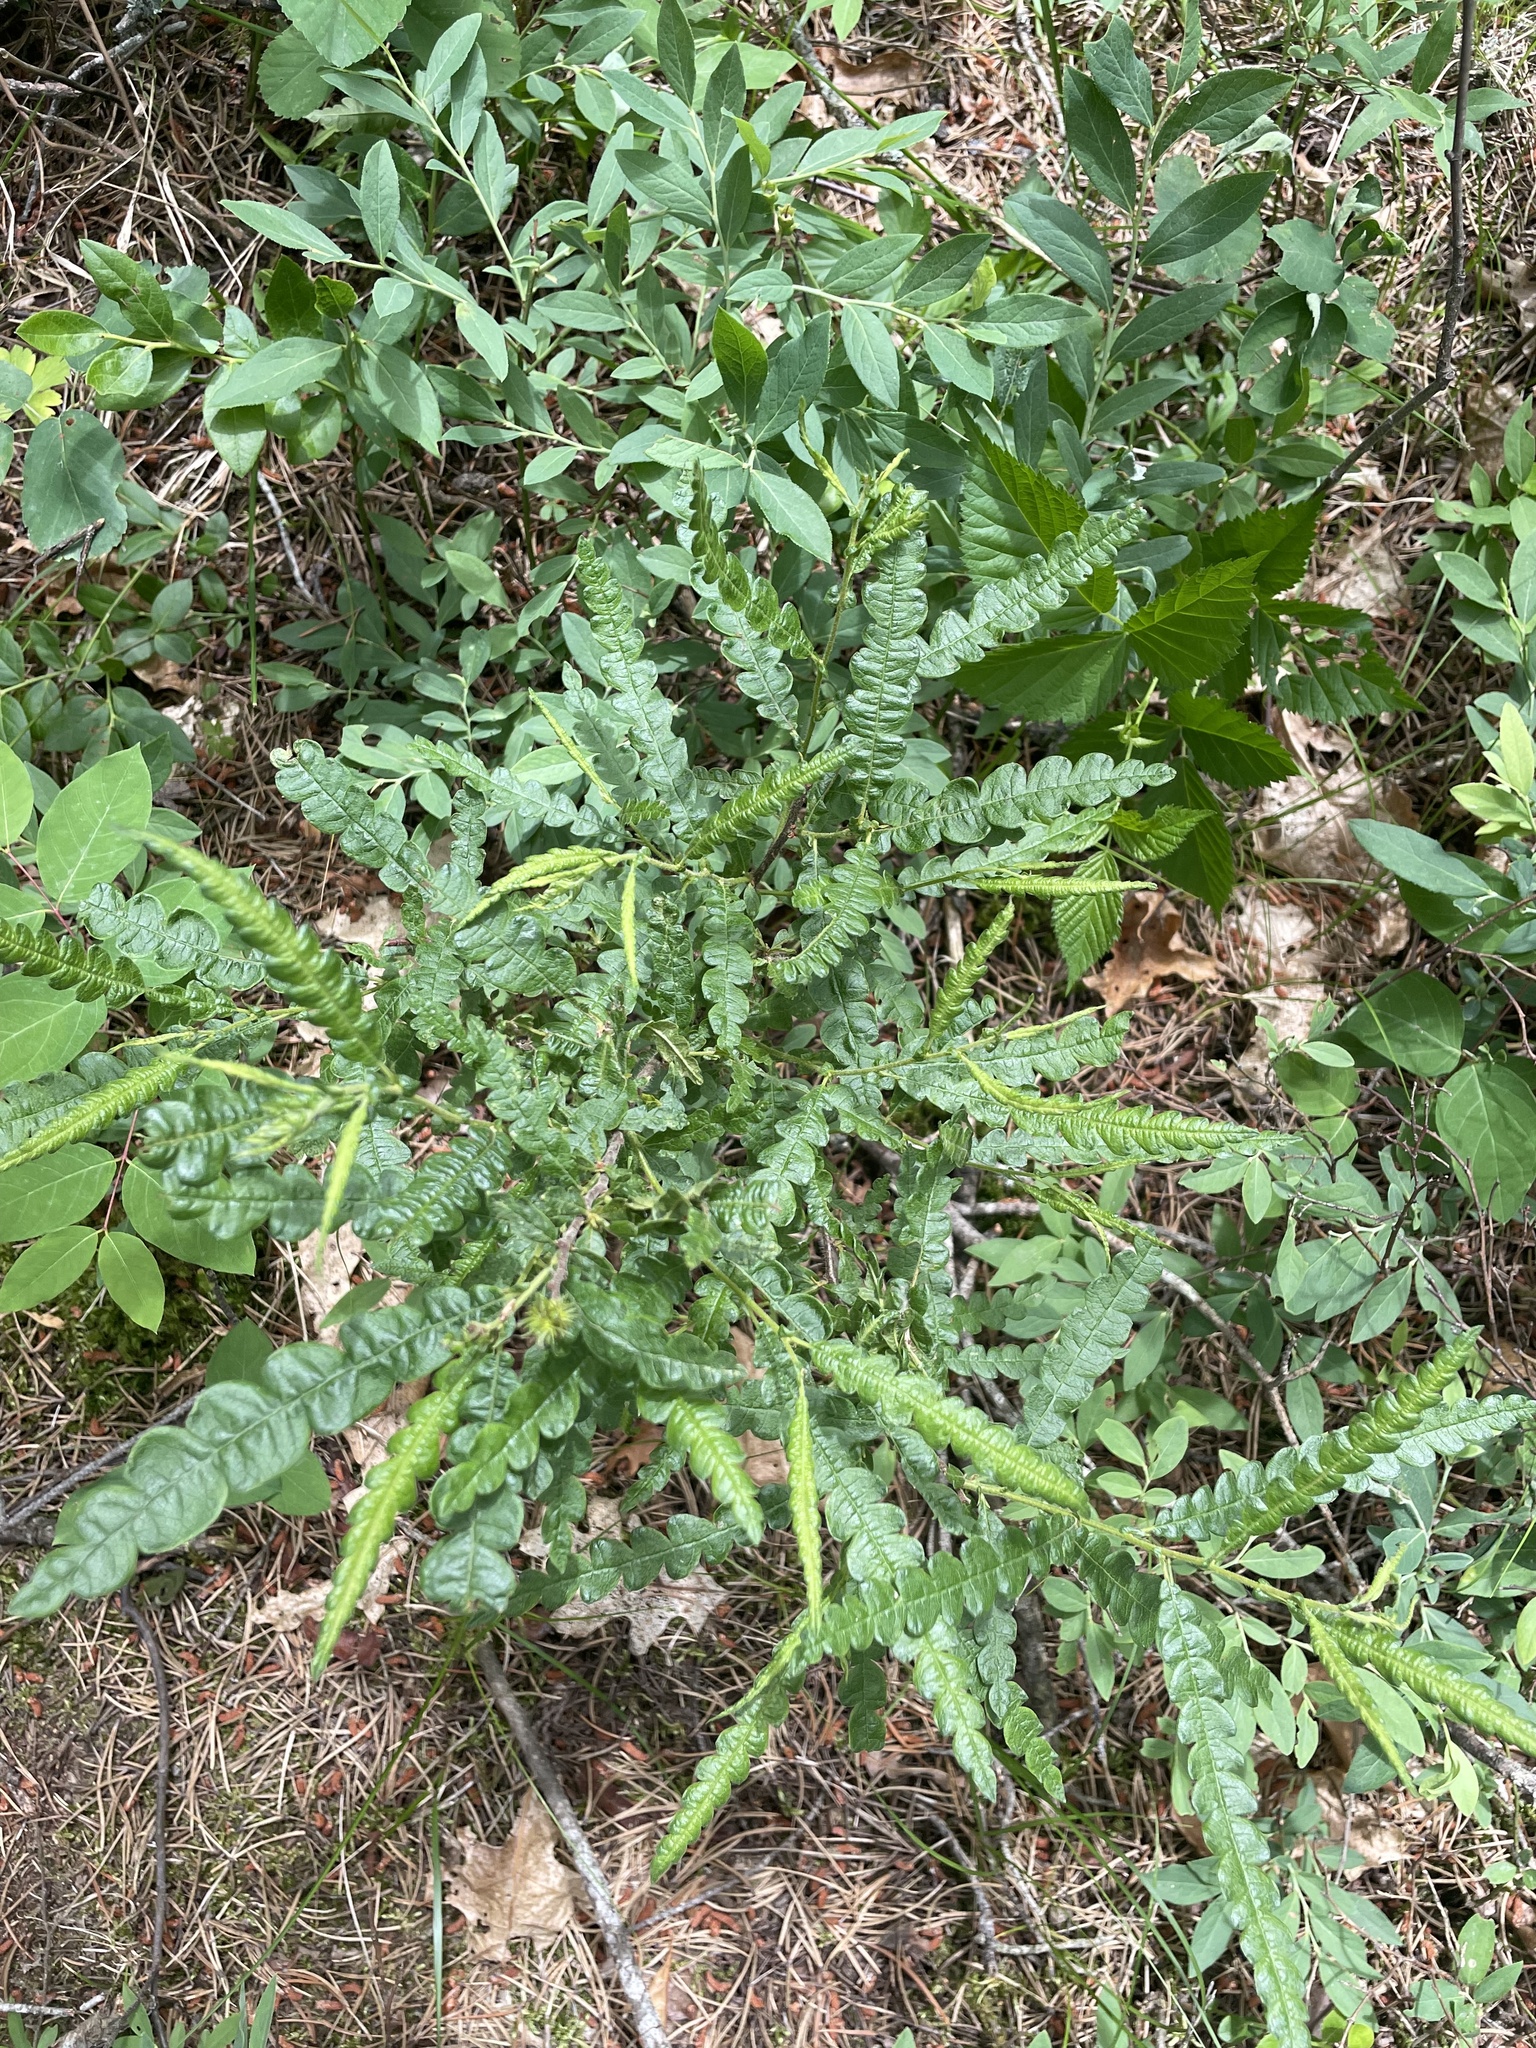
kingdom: Plantae
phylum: Tracheophyta
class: Magnoliopsida
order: Fagales
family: Myricaceae
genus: Comptonia
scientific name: Comptonia peregrina
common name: Sweet-fern
